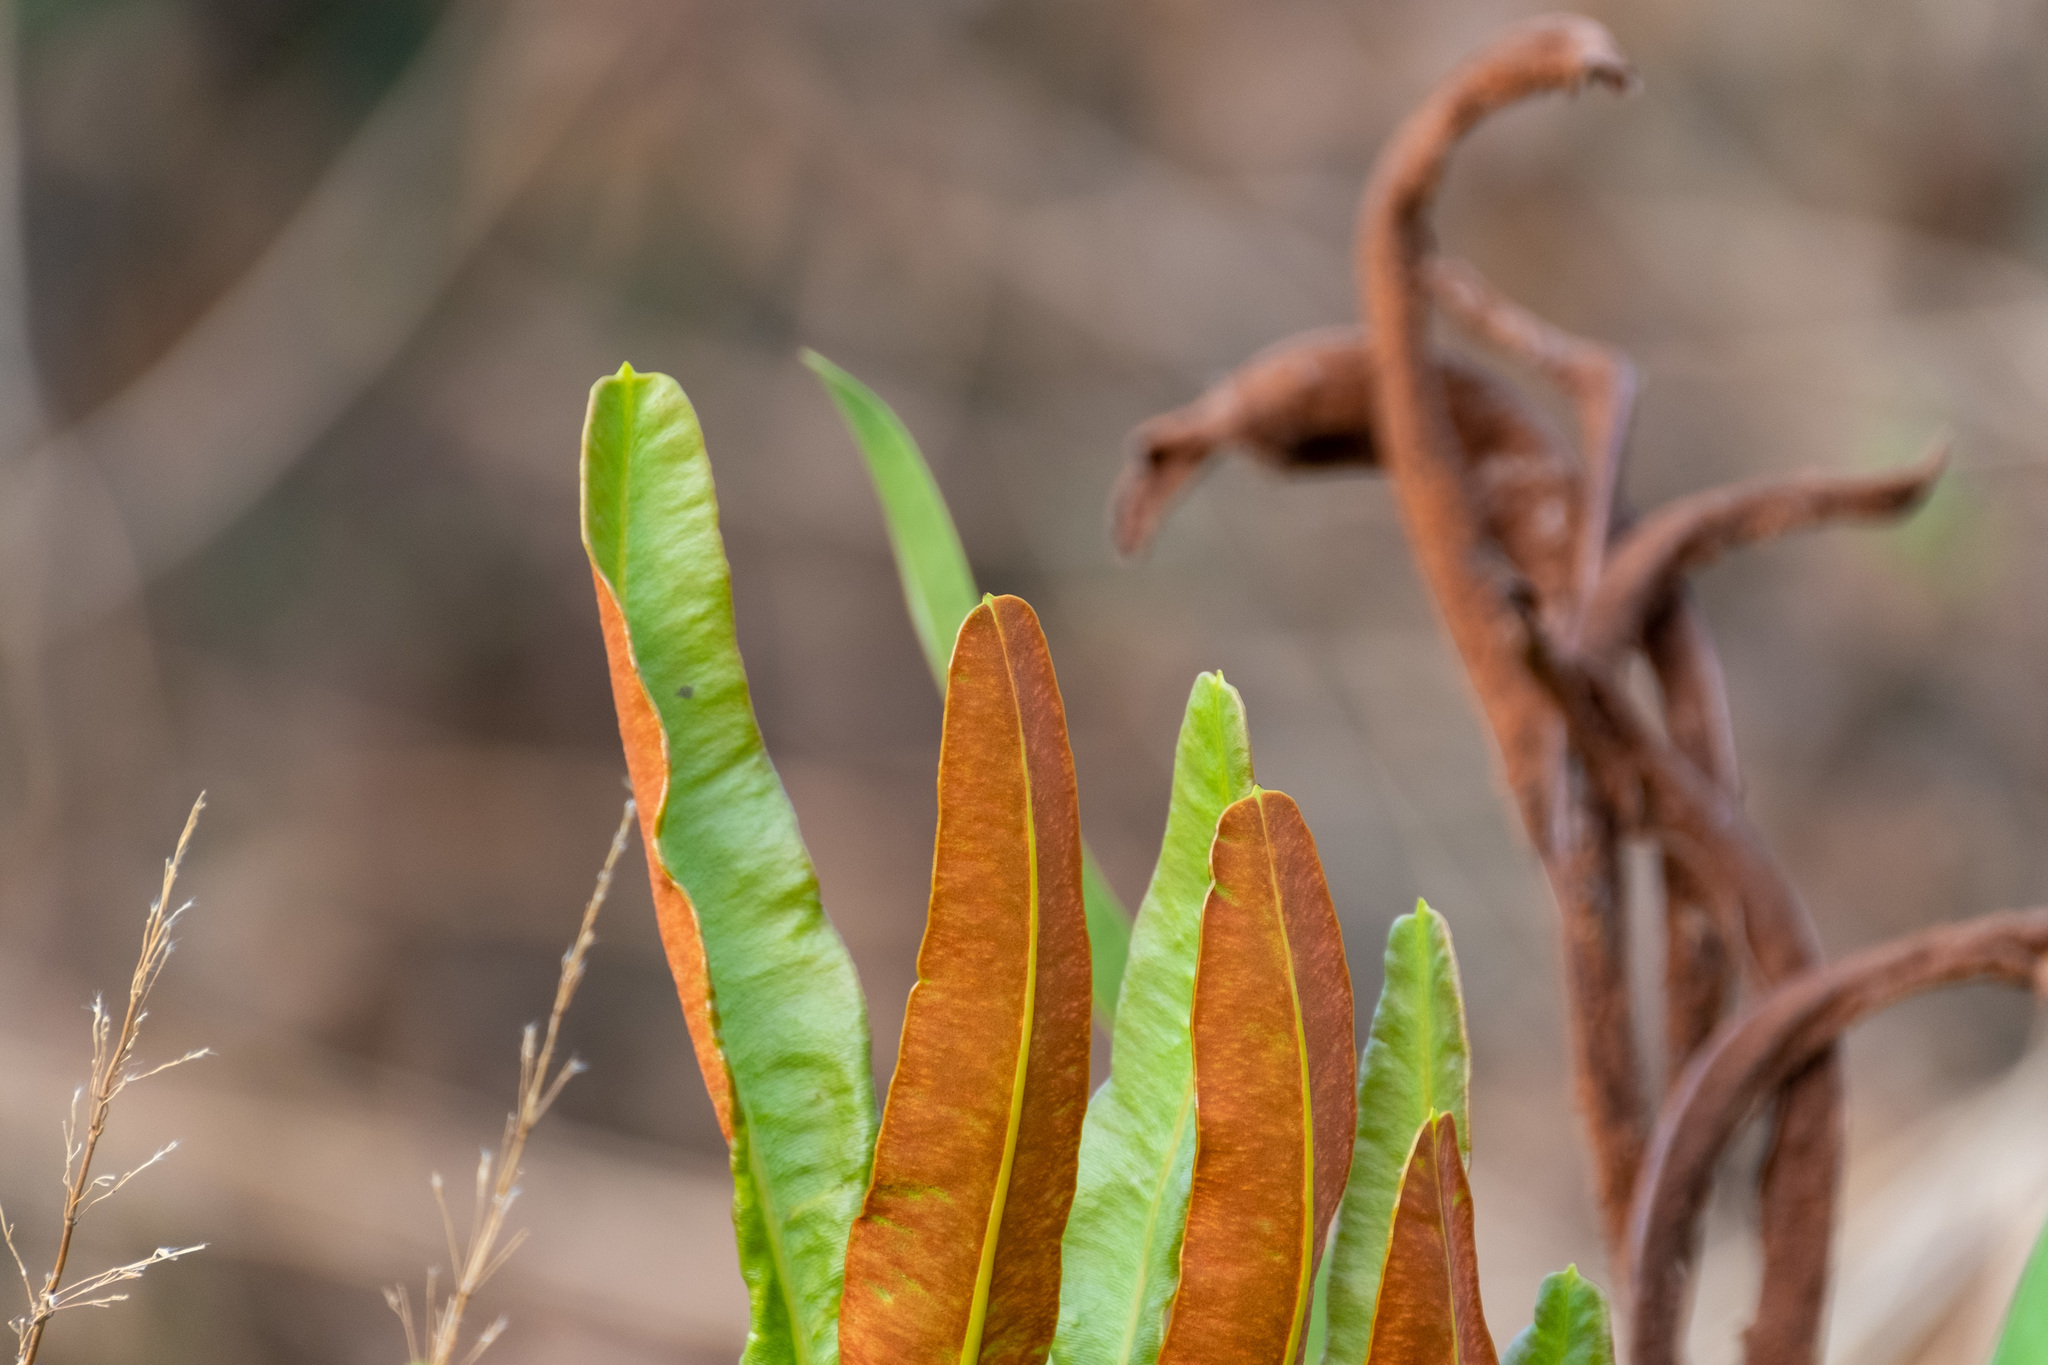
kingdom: Plantae
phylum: Tracheophyta
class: Polypodiopsida
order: Polypodiales
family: Pteridaceae
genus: Acrostichum
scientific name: Acrostichum aureum
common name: Leather fern
